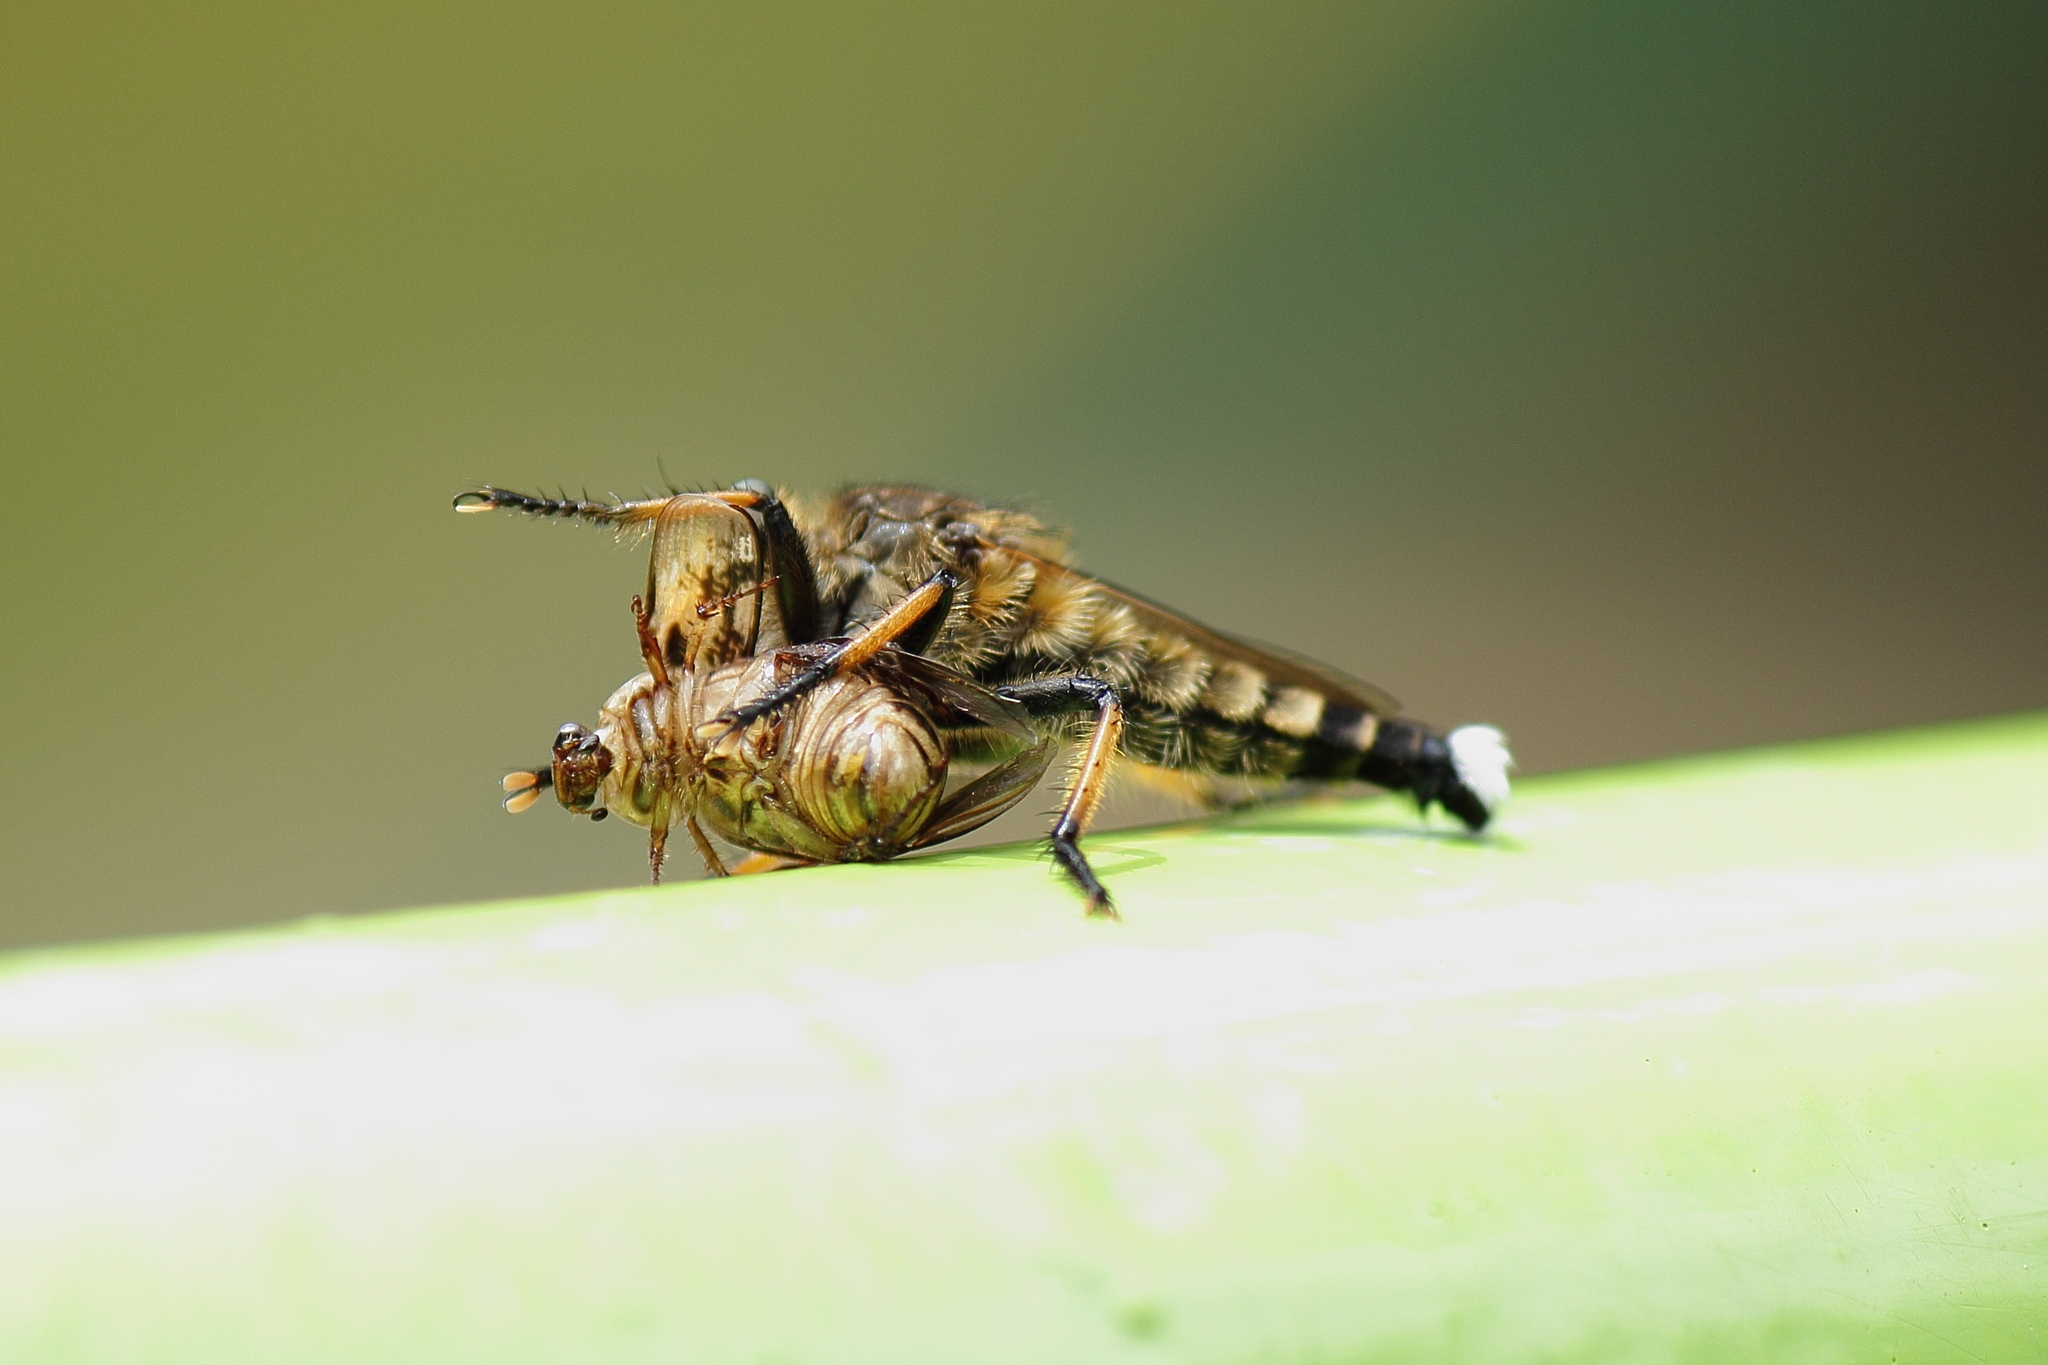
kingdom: Animalia
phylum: Arthropoda
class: Insecta
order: Diptera
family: Asilidae
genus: Promachus
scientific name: Promachus yesonicus
